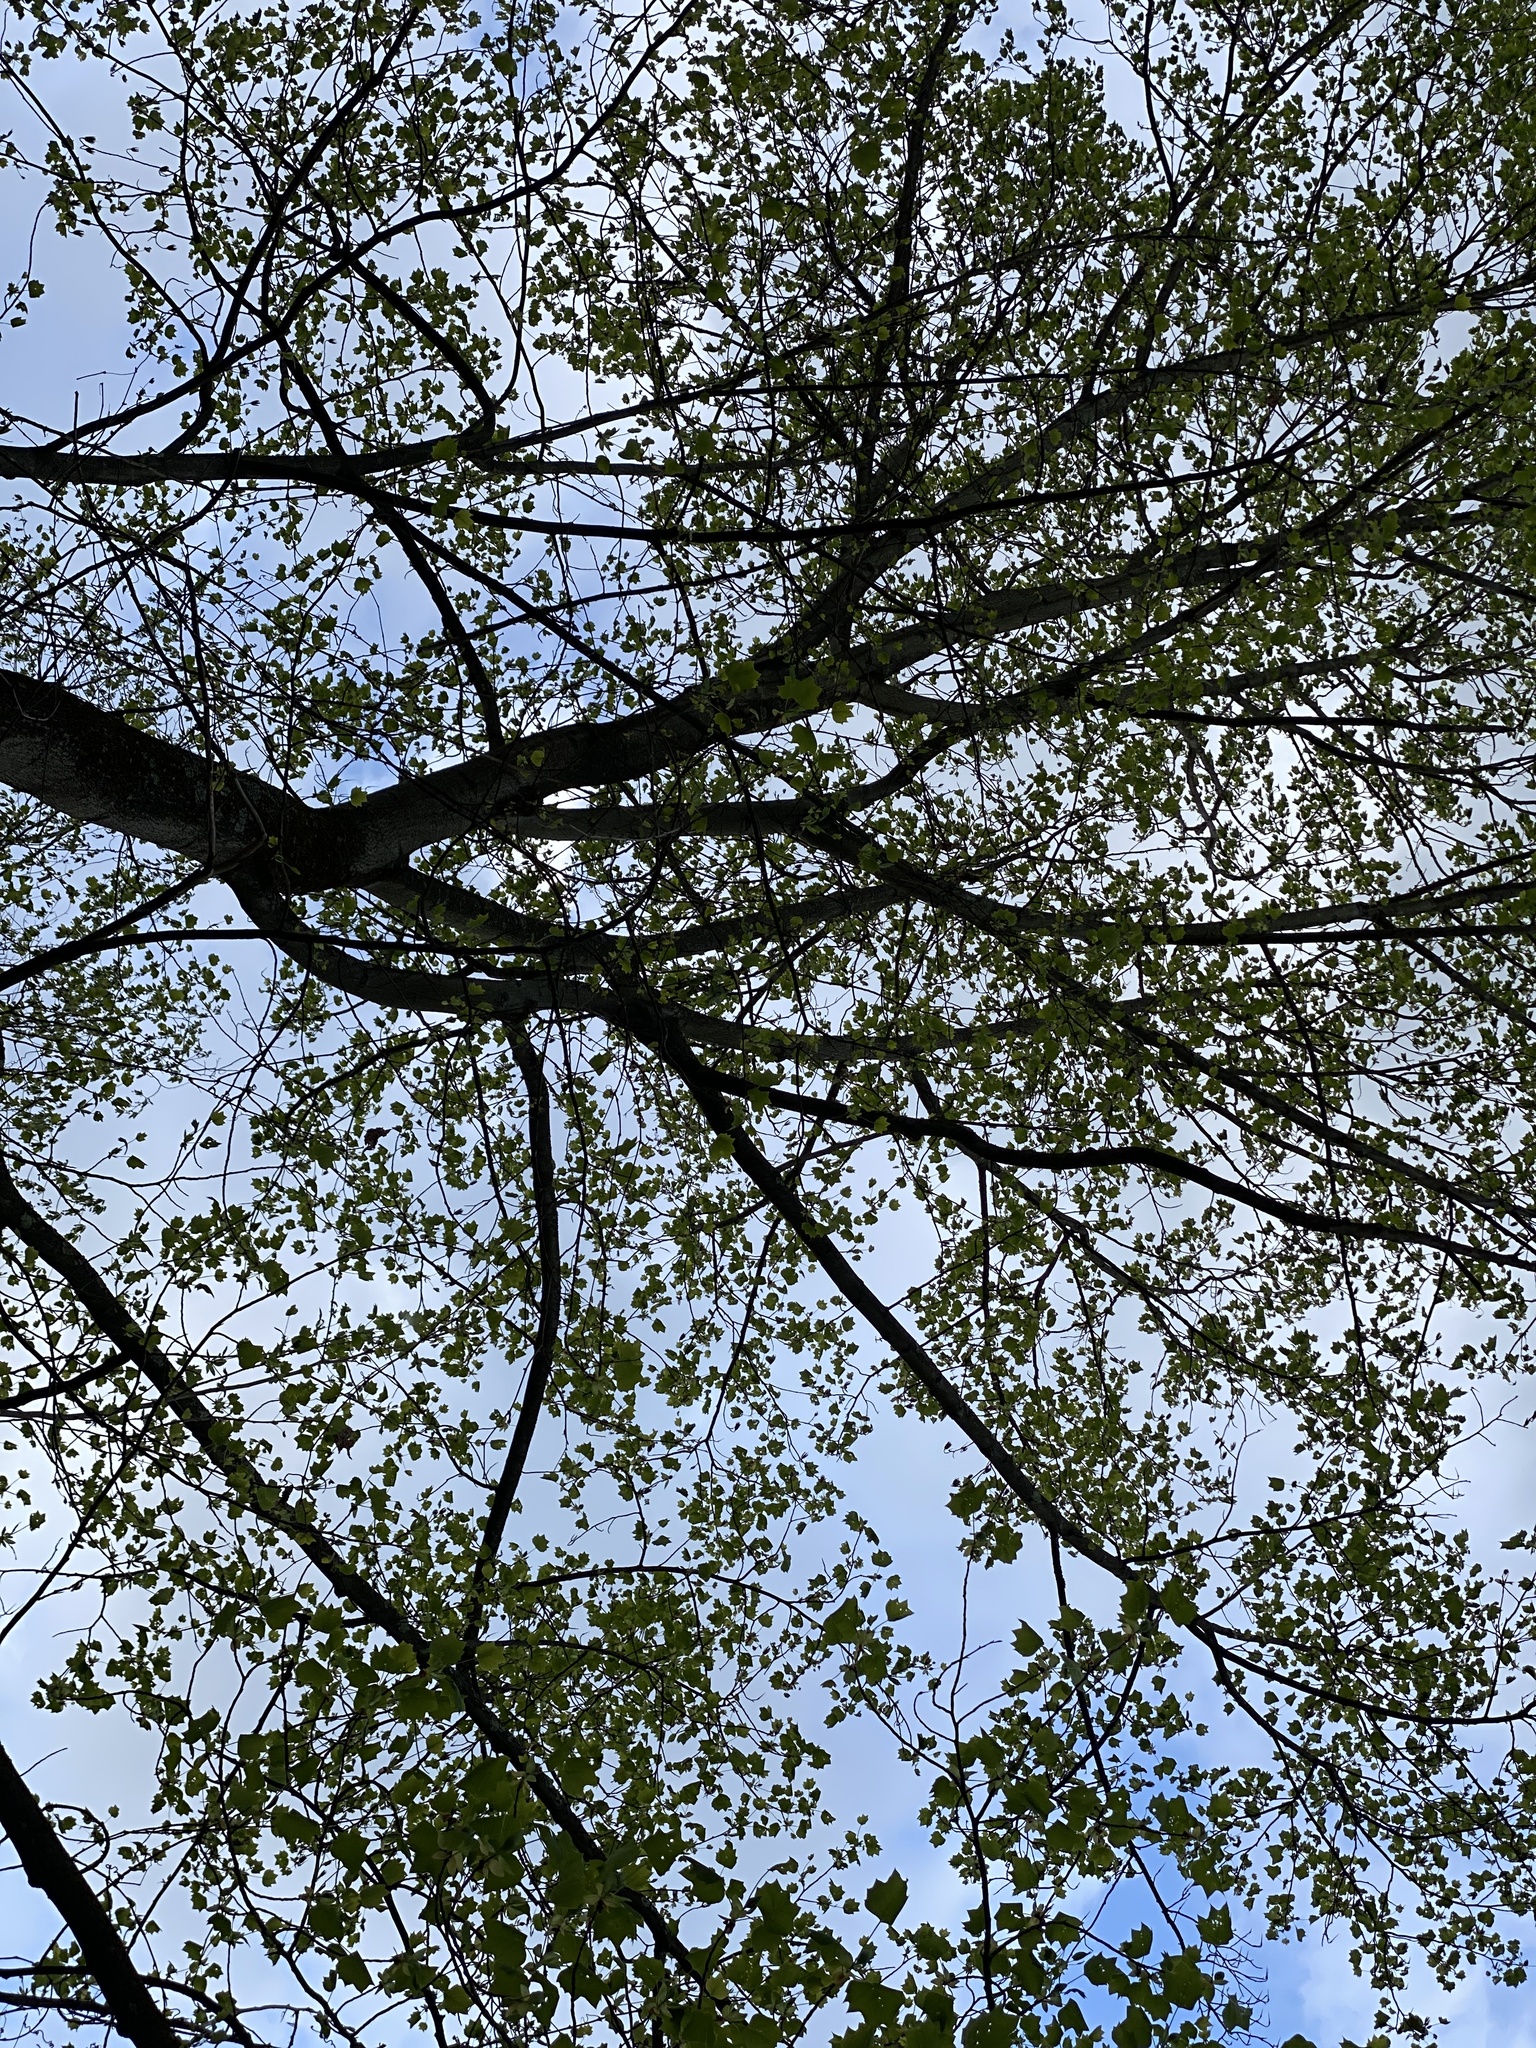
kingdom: Plantae
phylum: Tracheophyta
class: Magnoliopsida
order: Magnoliales
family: Magnoliaceae
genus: Liriodendron
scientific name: Liriodendron tulipifera
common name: Tulip tree
